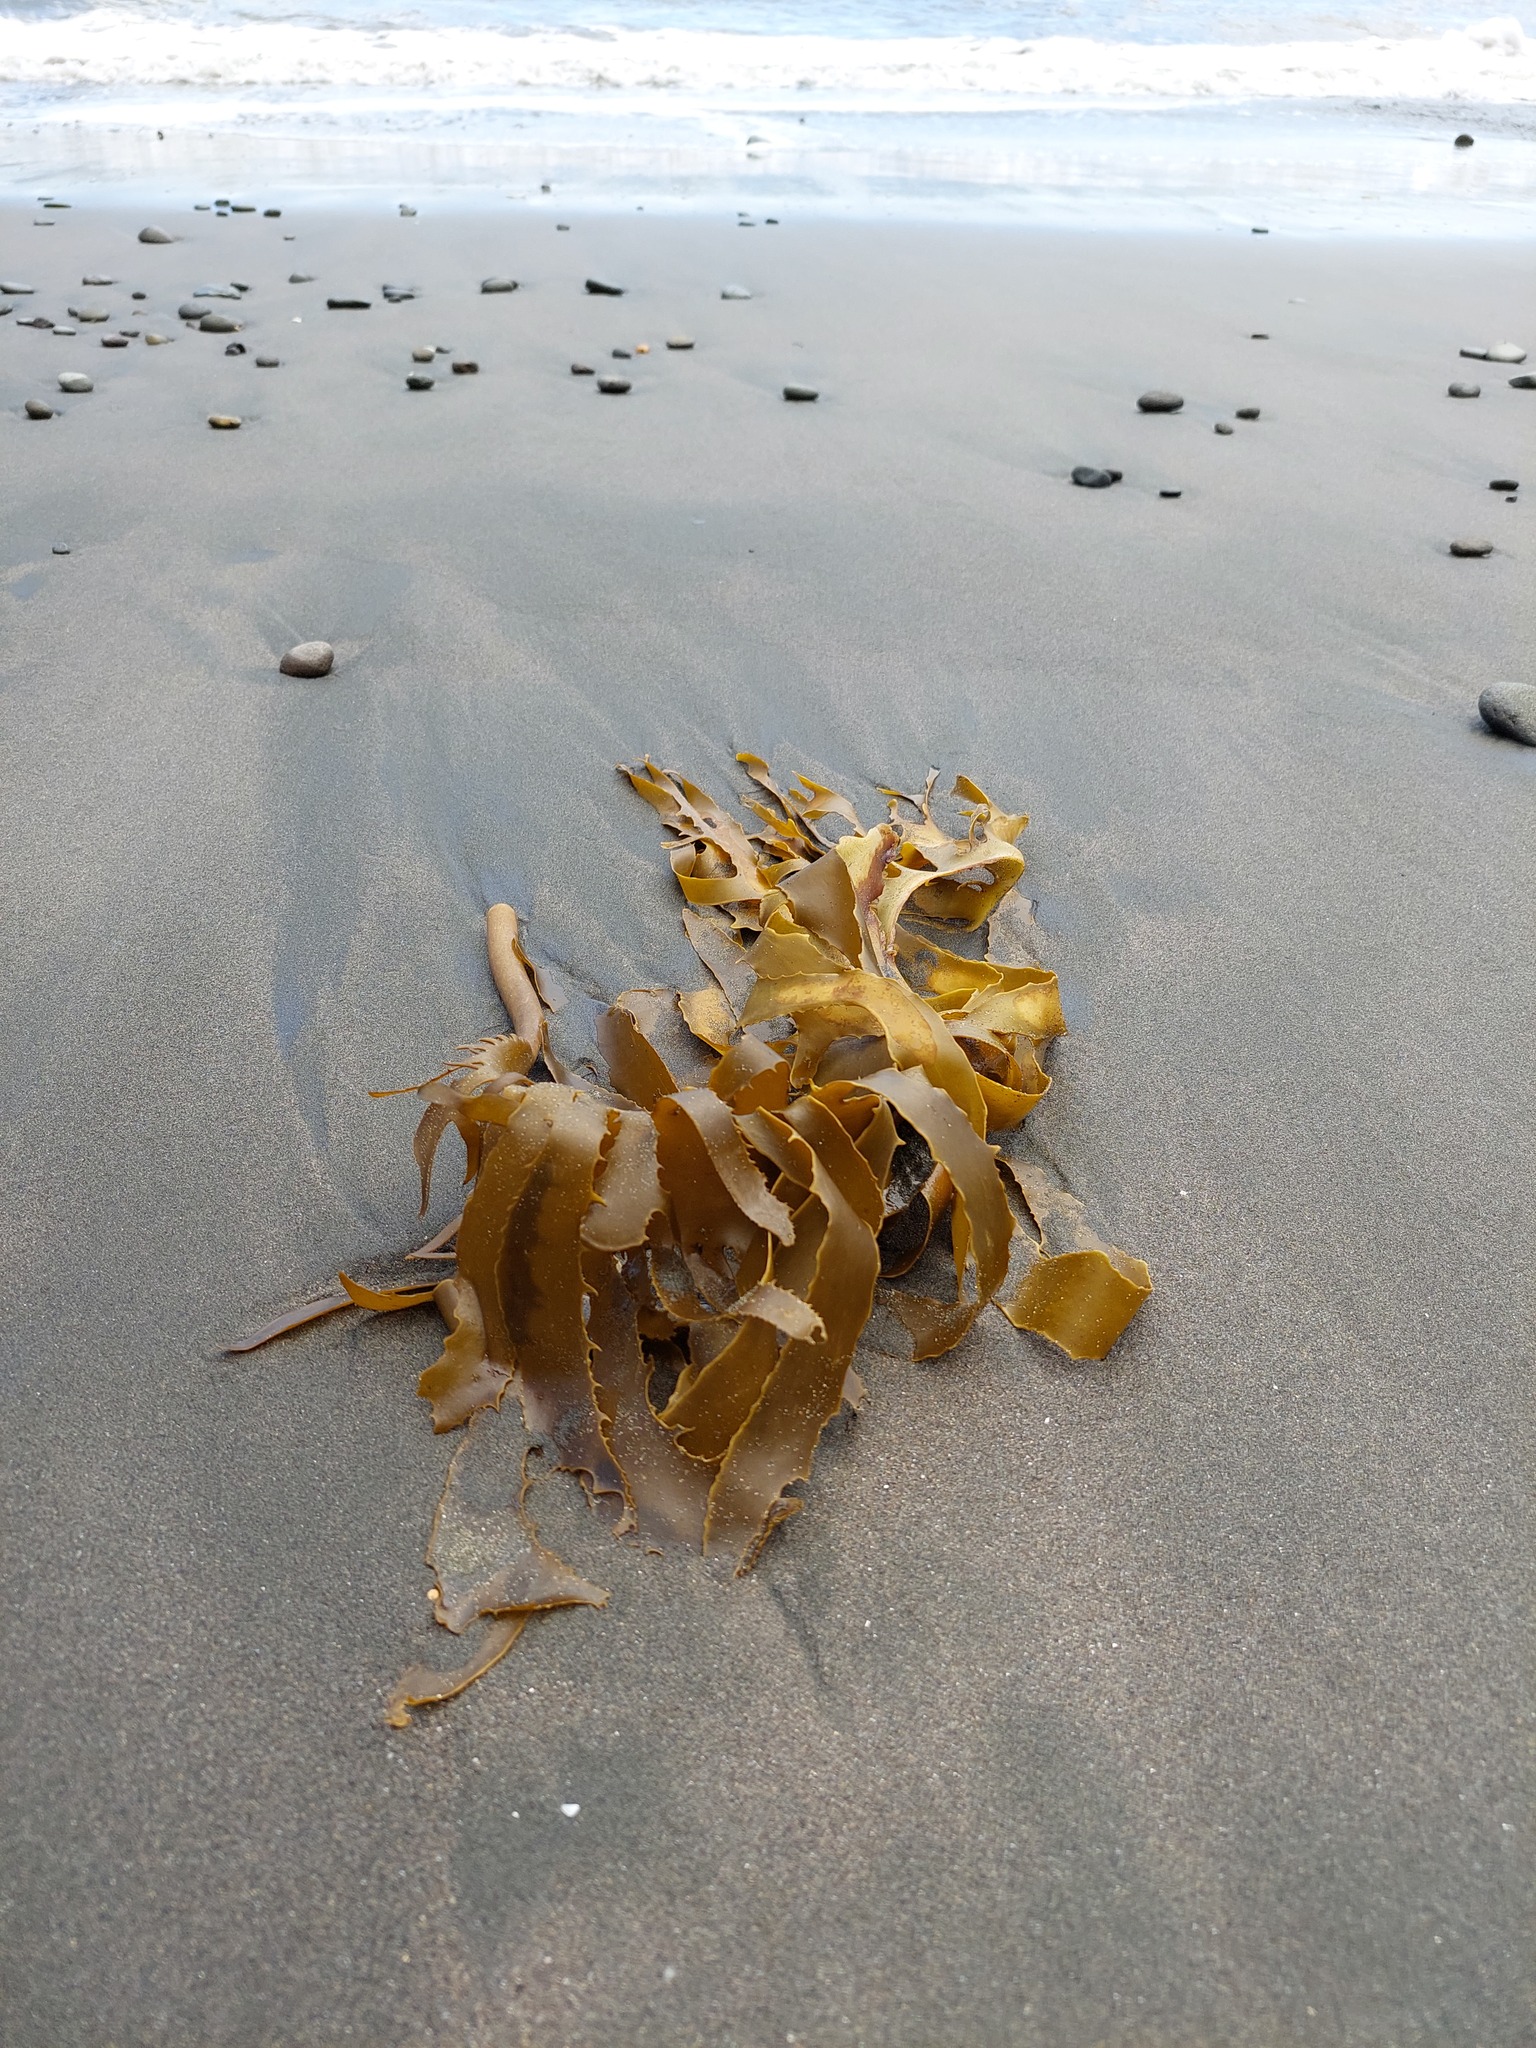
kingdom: Chromista
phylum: Ochrophyta
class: Phaeophyceae
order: Laminariales
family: Lessoniaceae
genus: Ecklonia
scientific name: Ecklonia radiata
